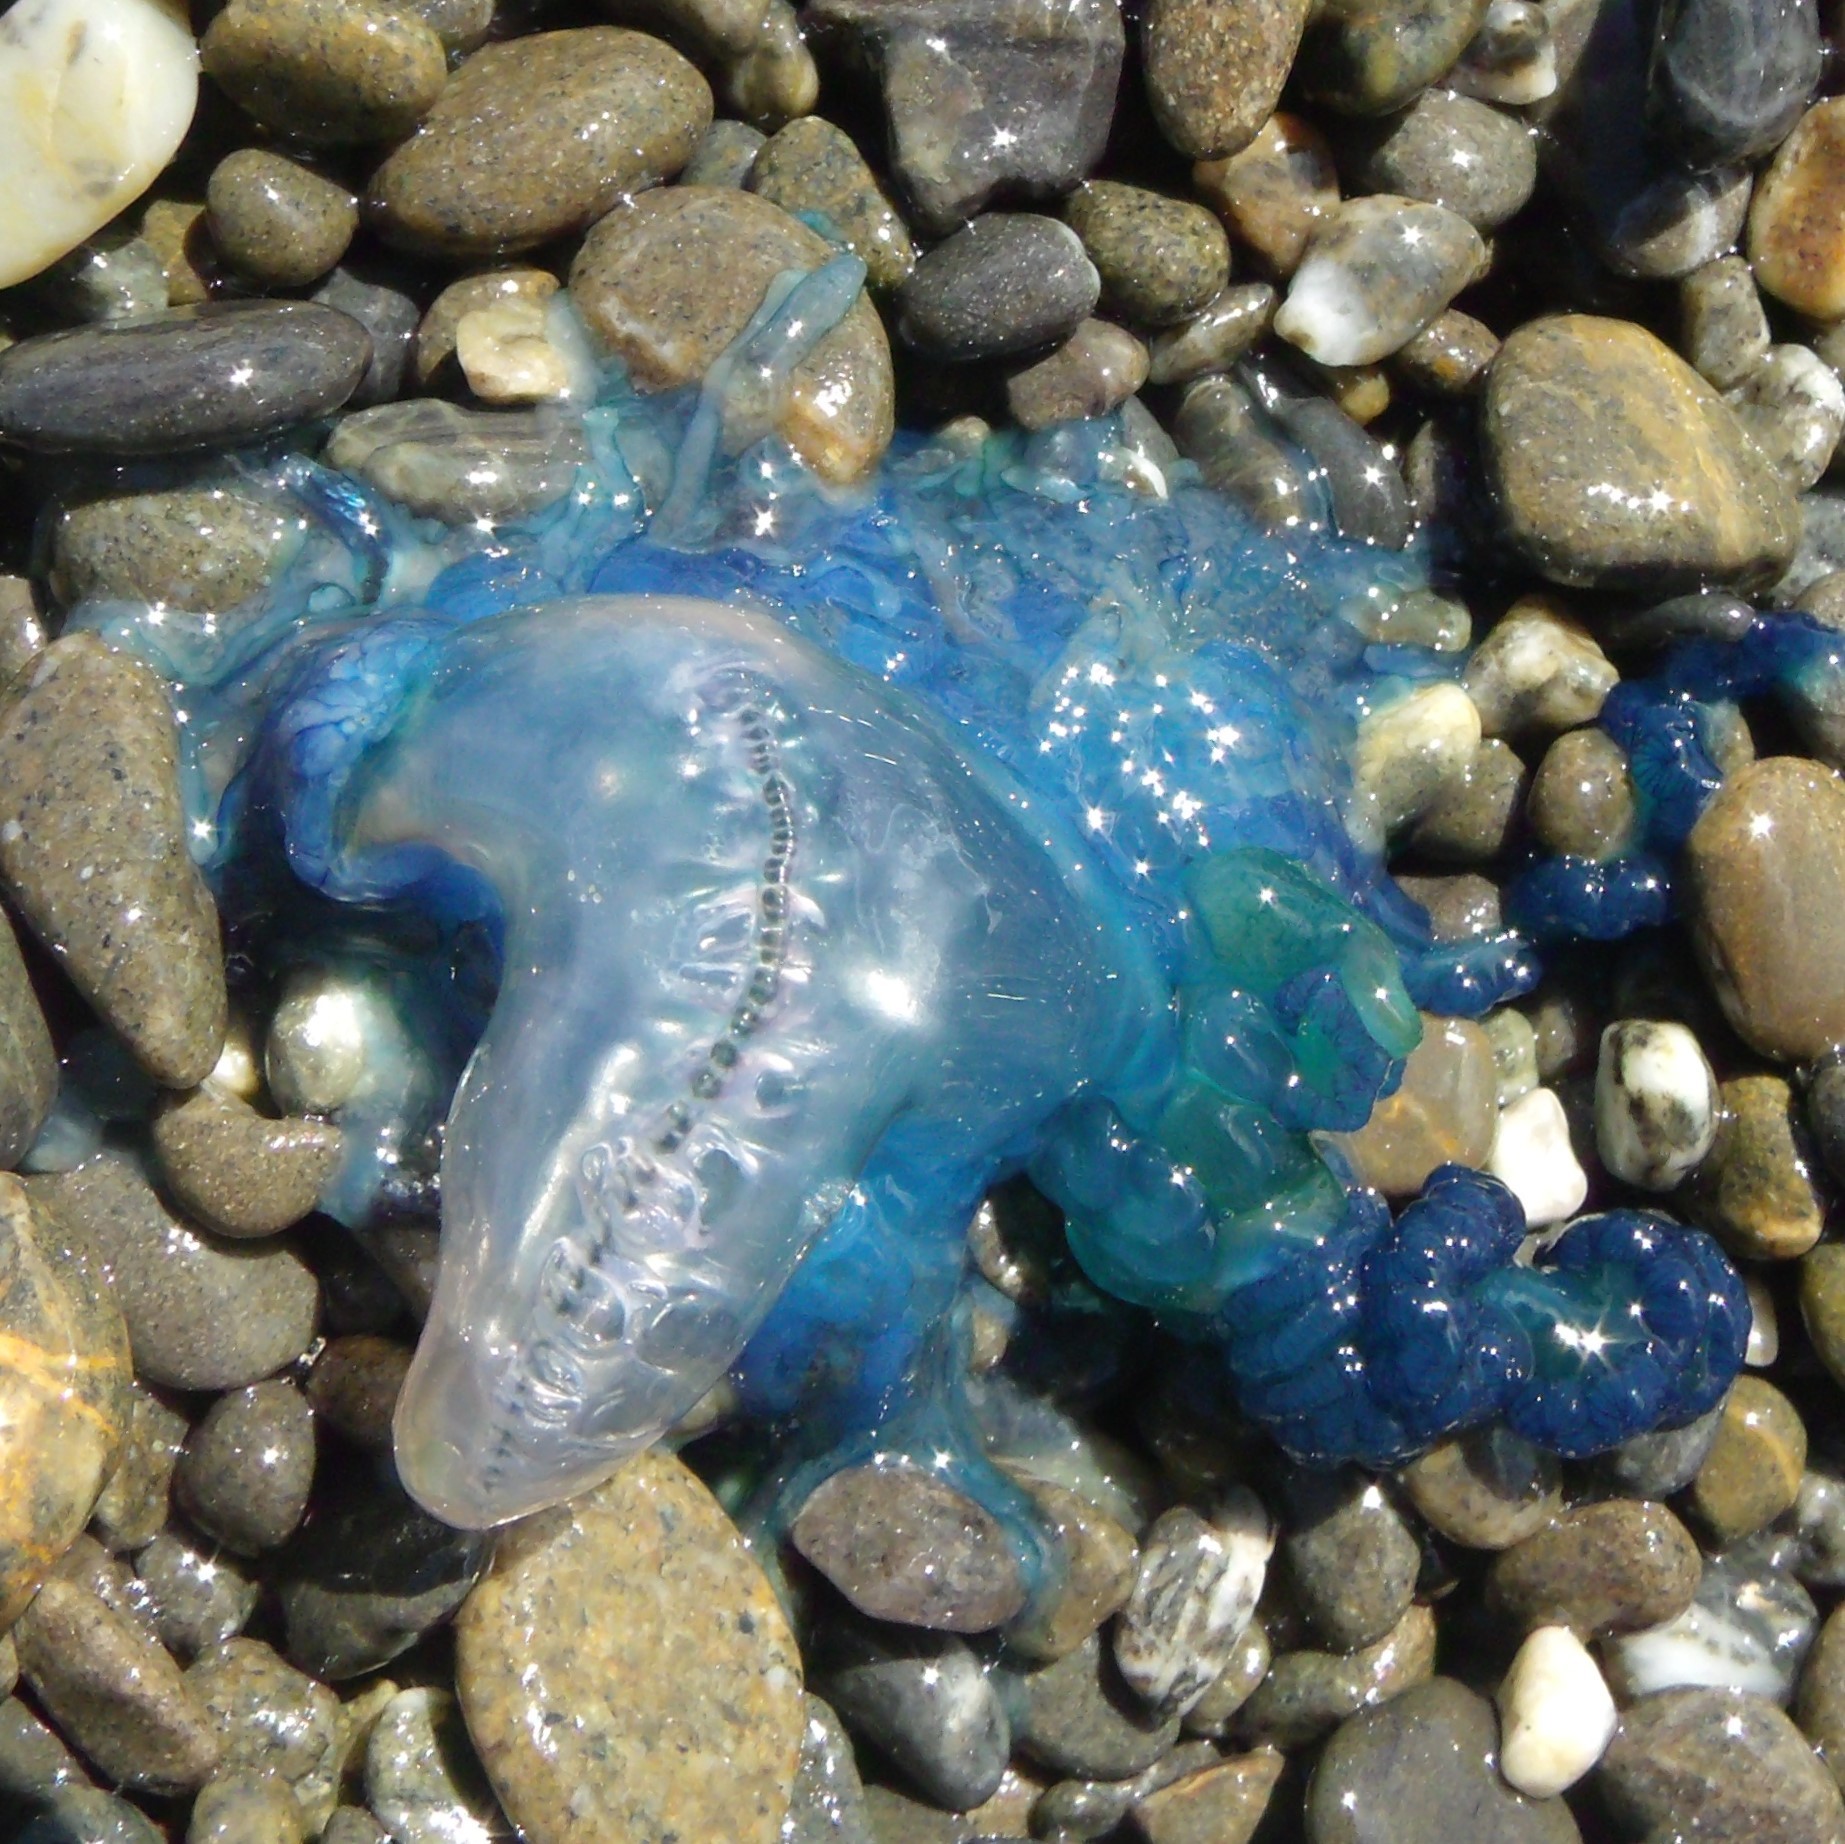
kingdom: Animalia
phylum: Cnidaria
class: Hydrozoa
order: Siphonophorae
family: Physaliidae
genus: Physalia
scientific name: Physalia physalis
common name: Portuguese man-of-war
